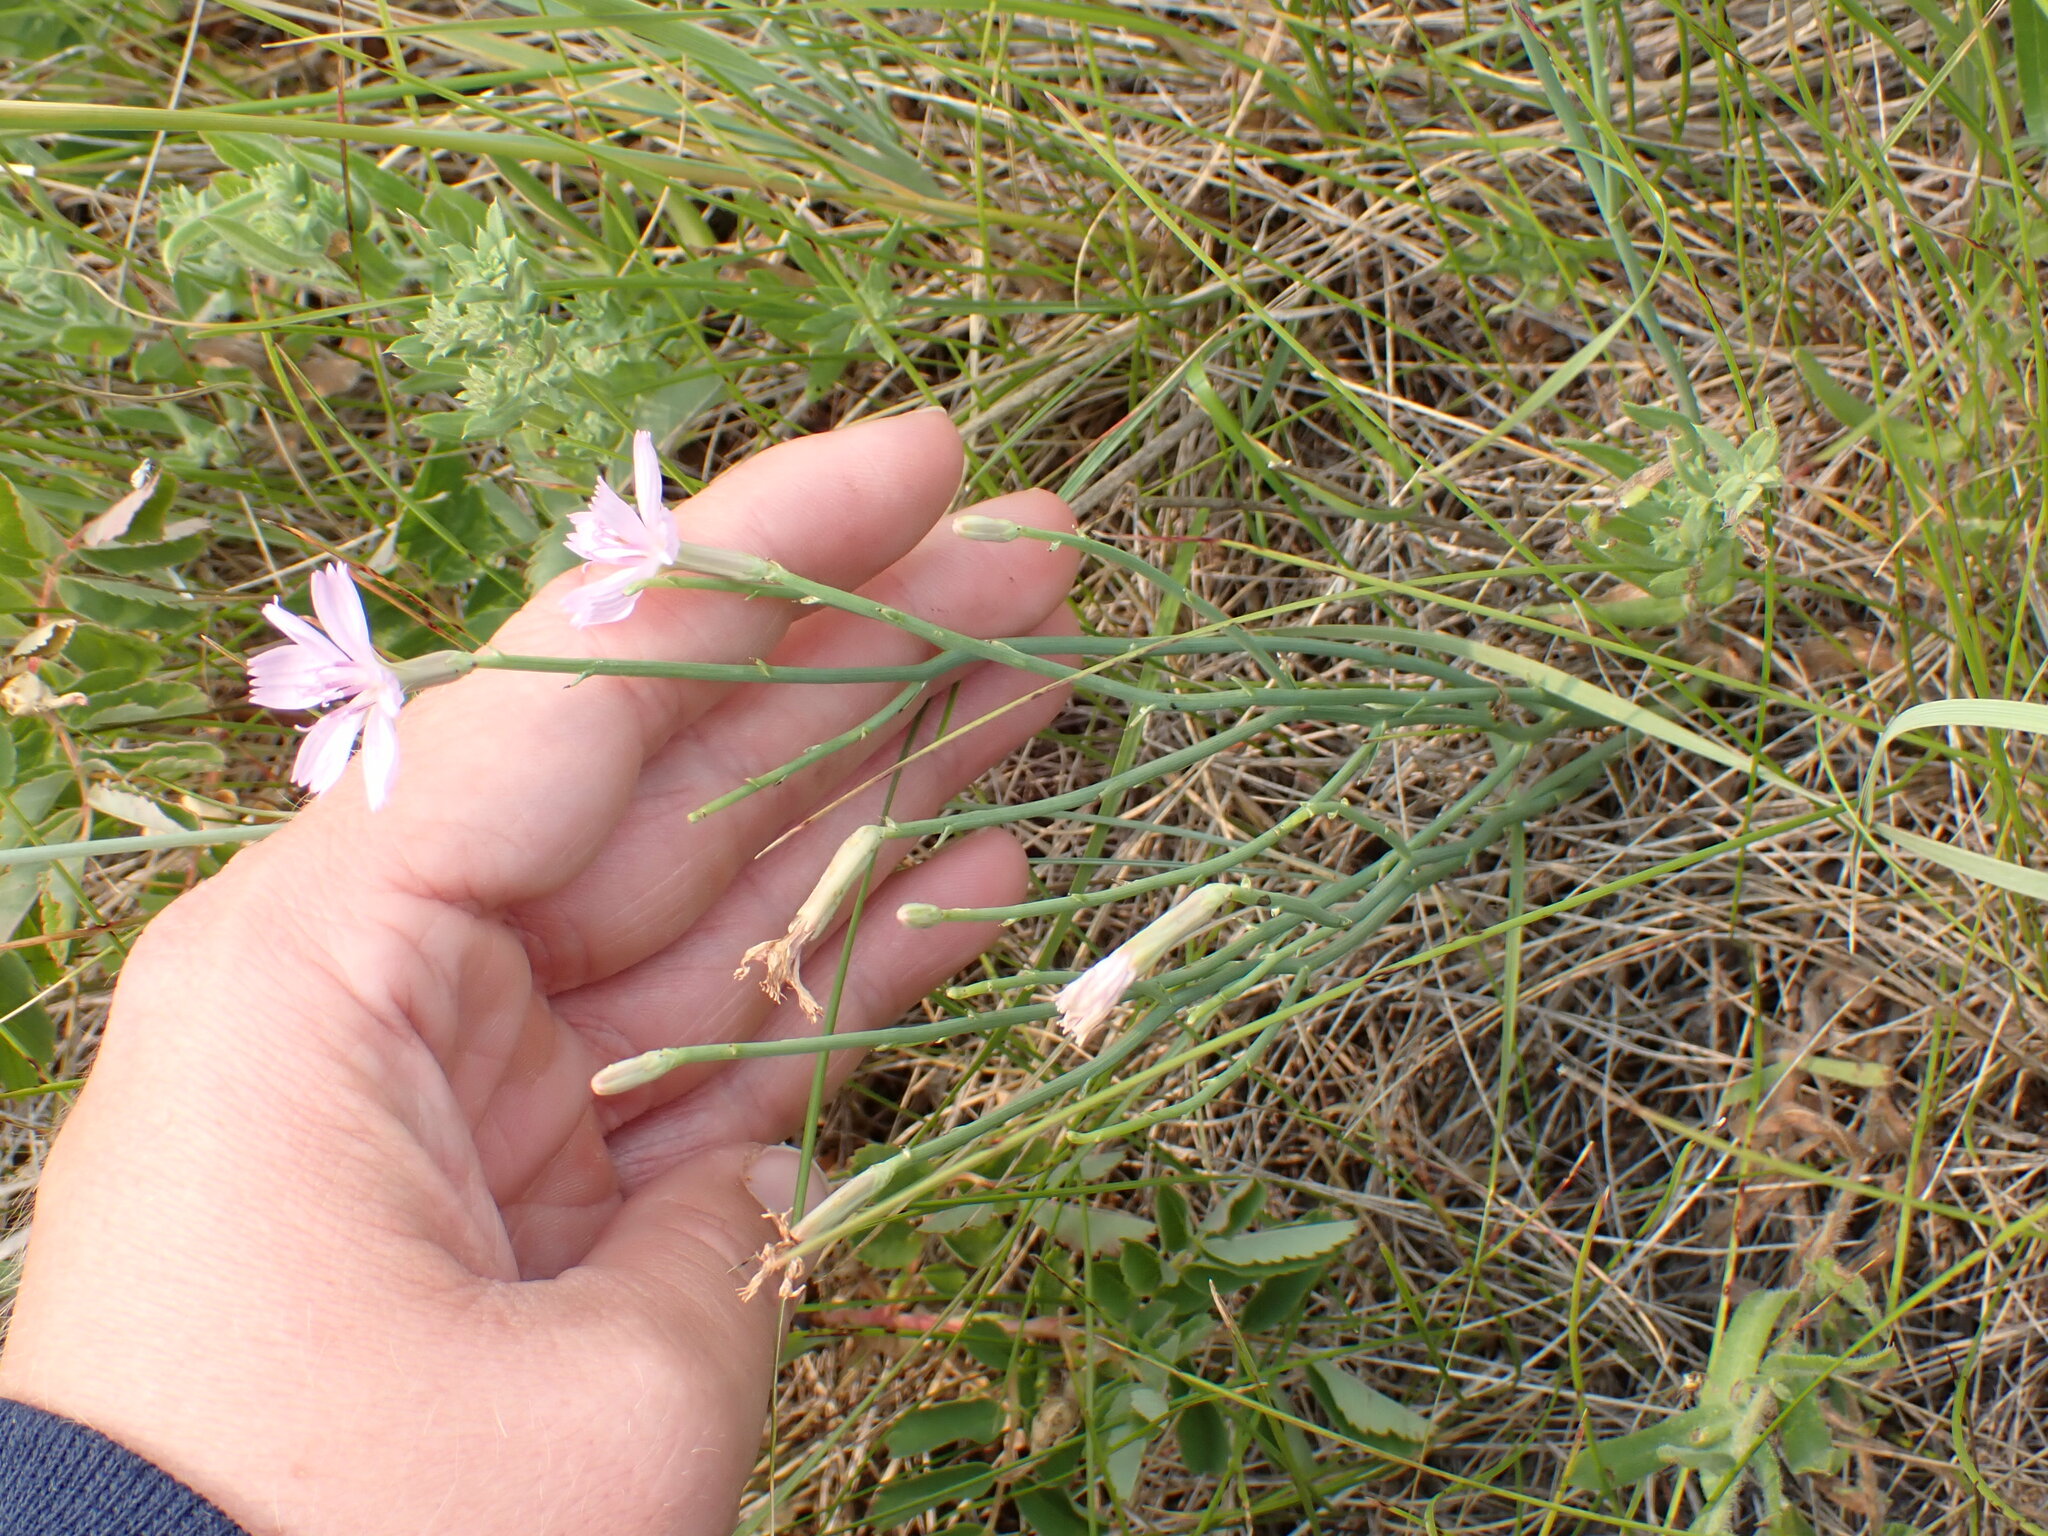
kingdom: Plantae
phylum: Tracheophyta
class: Magnoliopsida
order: Asterales
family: Asteraceae
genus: Lygodesmia
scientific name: Lygodesmia juncea
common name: Common skeletonweed
